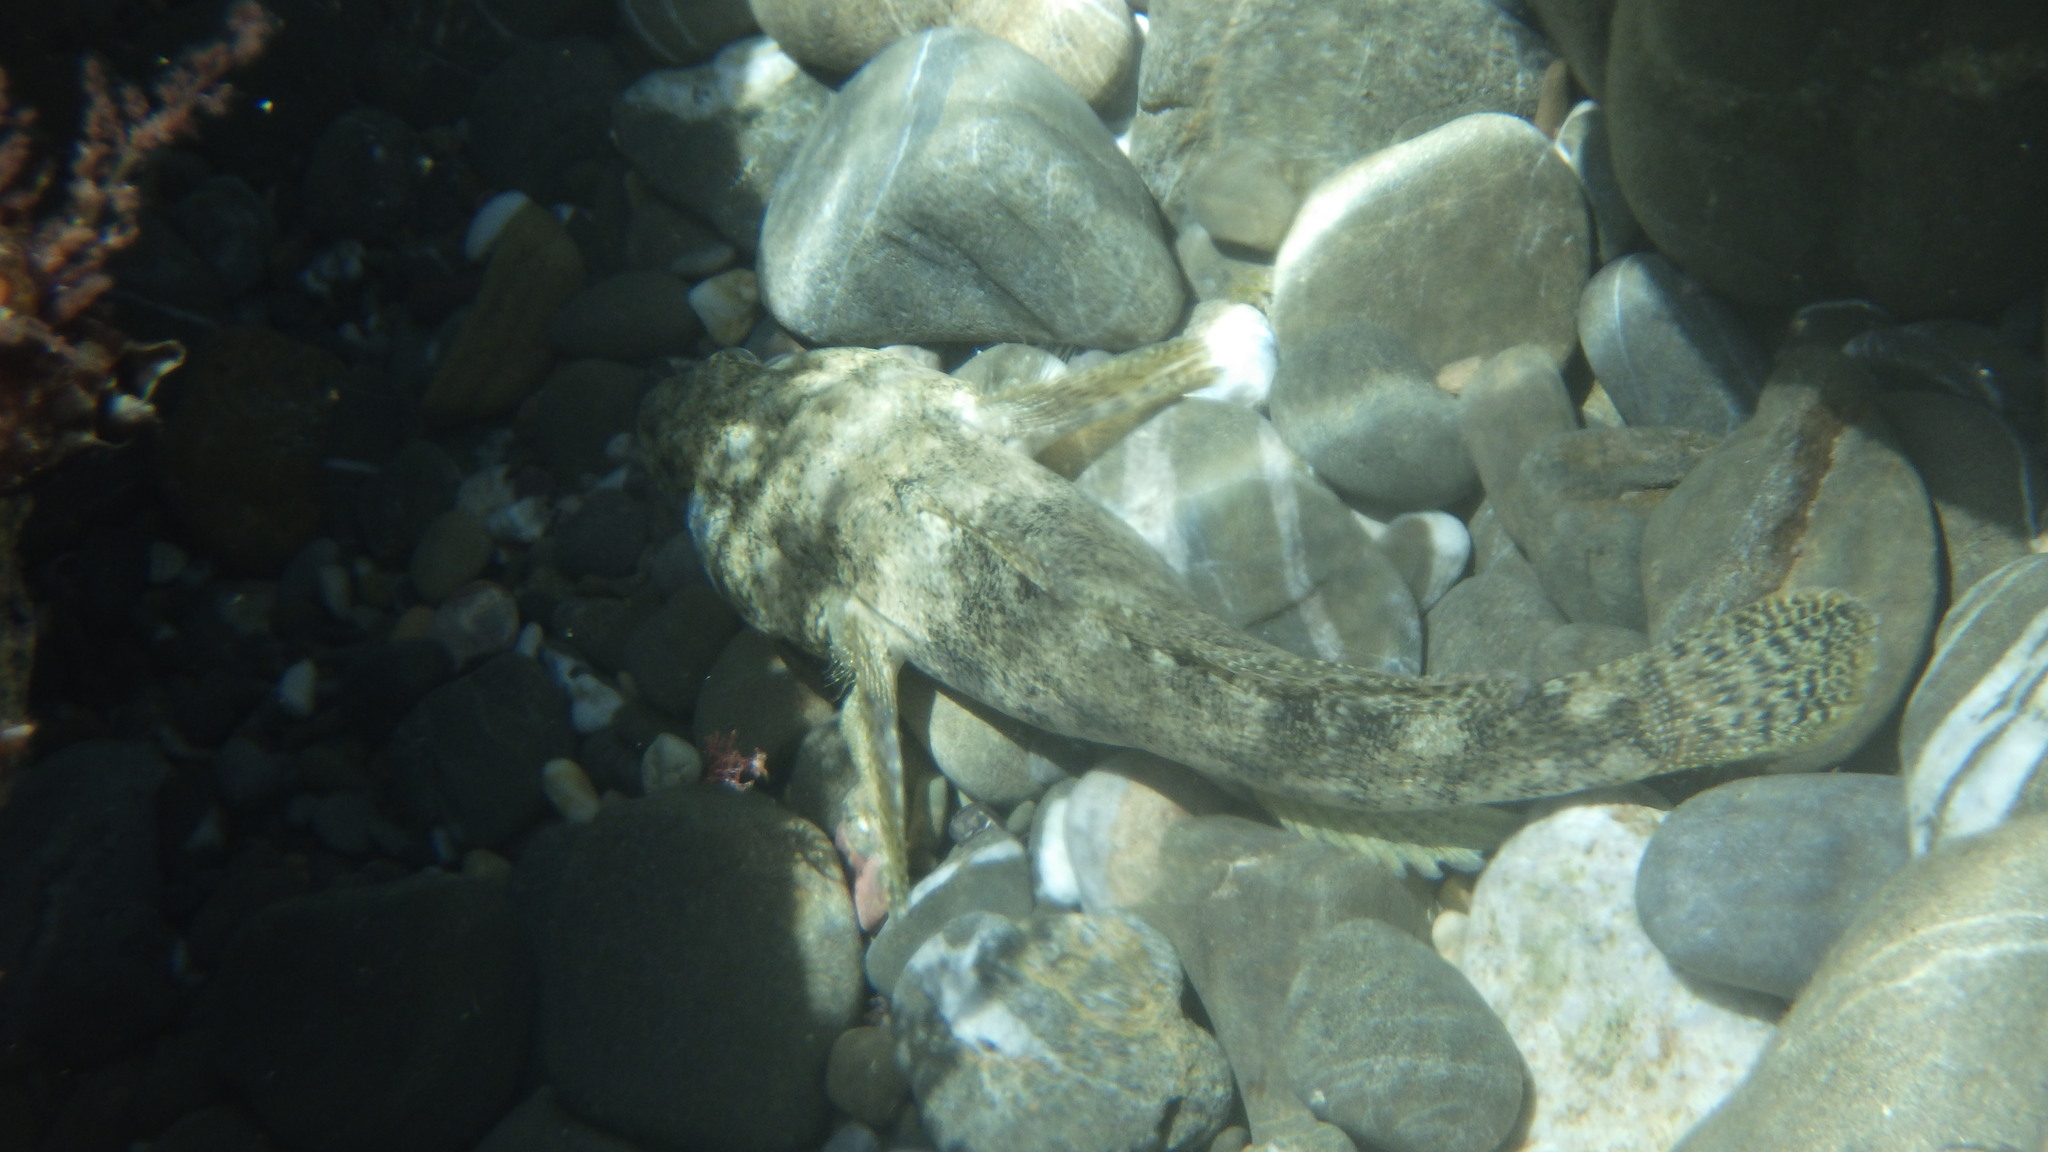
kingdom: Animalia
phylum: Chordata
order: Perciformes
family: Gobiidae
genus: Gobius
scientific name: Gobius cobitis
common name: Giant goby
